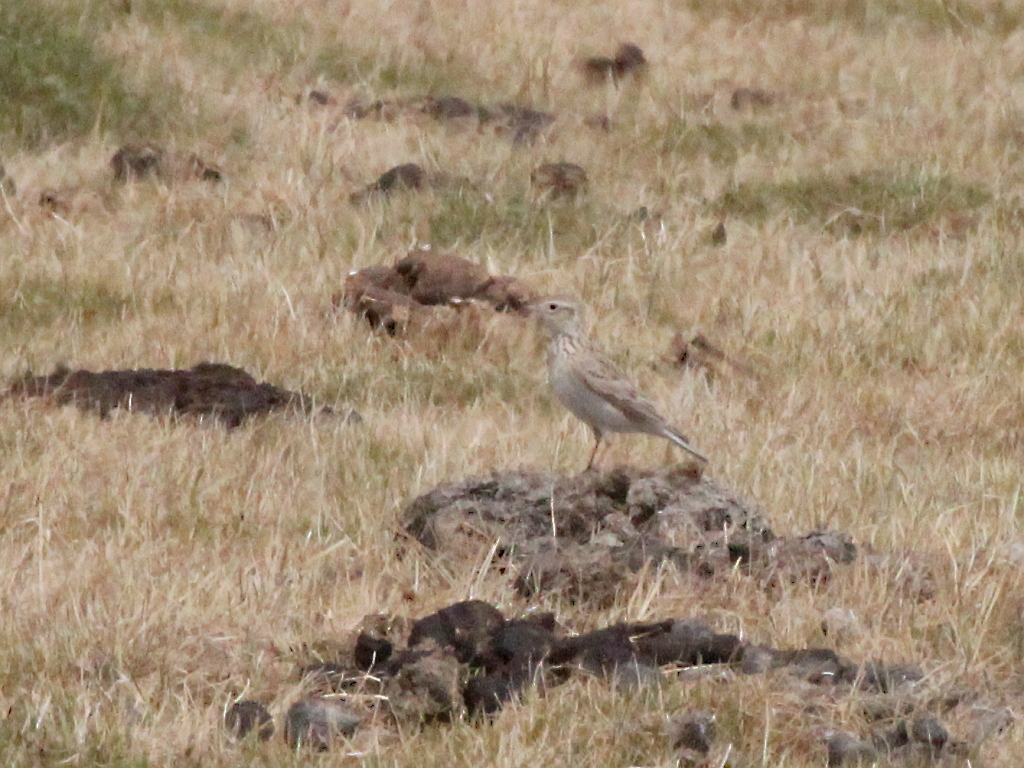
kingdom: Animalia
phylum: Chordata
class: Aves
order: Passeriformes
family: Alaudidae
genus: Alauda
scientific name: Alauda arvensis
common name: Eurasian skylark
